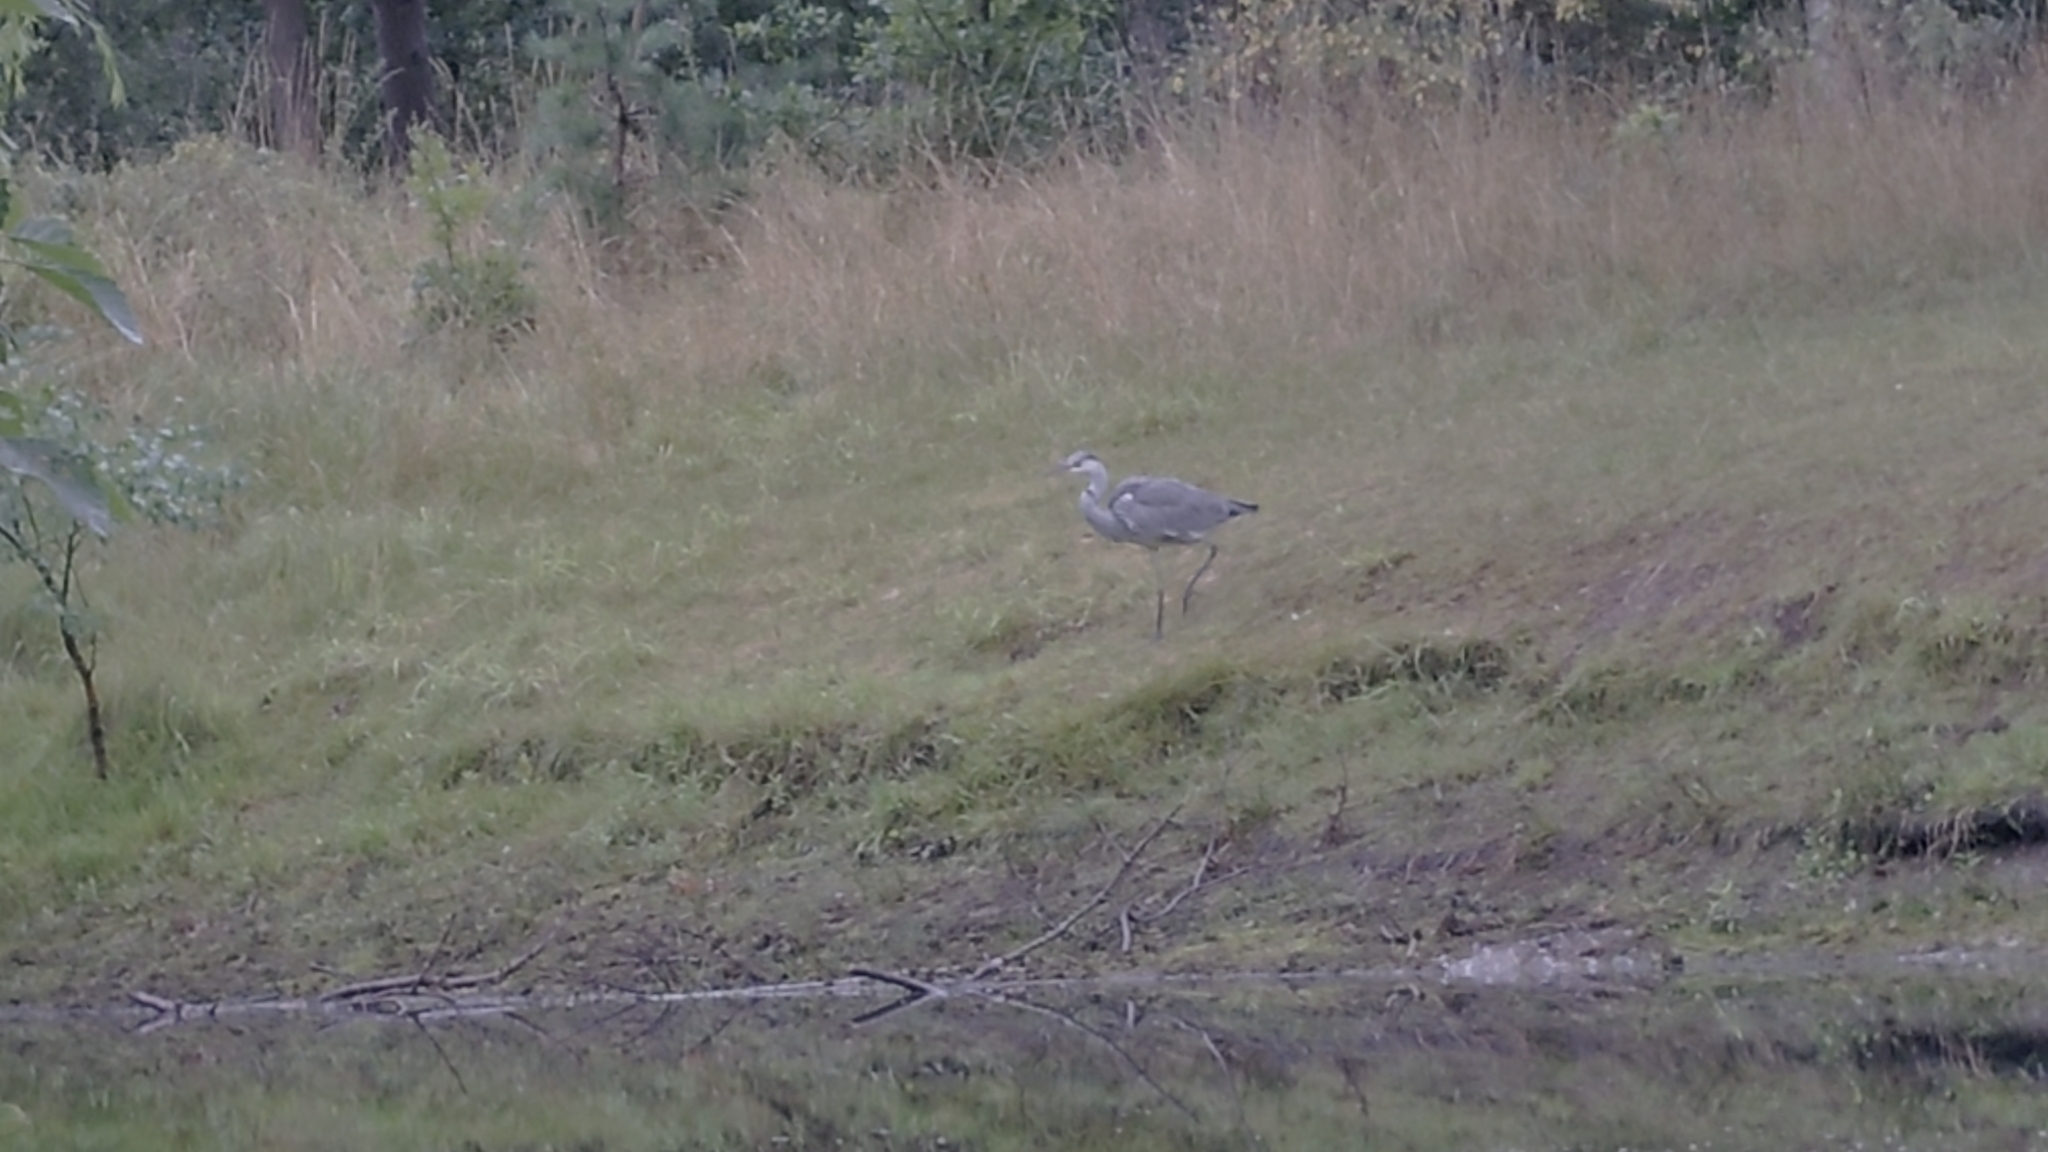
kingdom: Animalia
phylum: Chordata
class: Aves
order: Pelecaniformes
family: Ardeidae
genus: Ardea
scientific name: Ardea cinerea
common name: Grey heron
